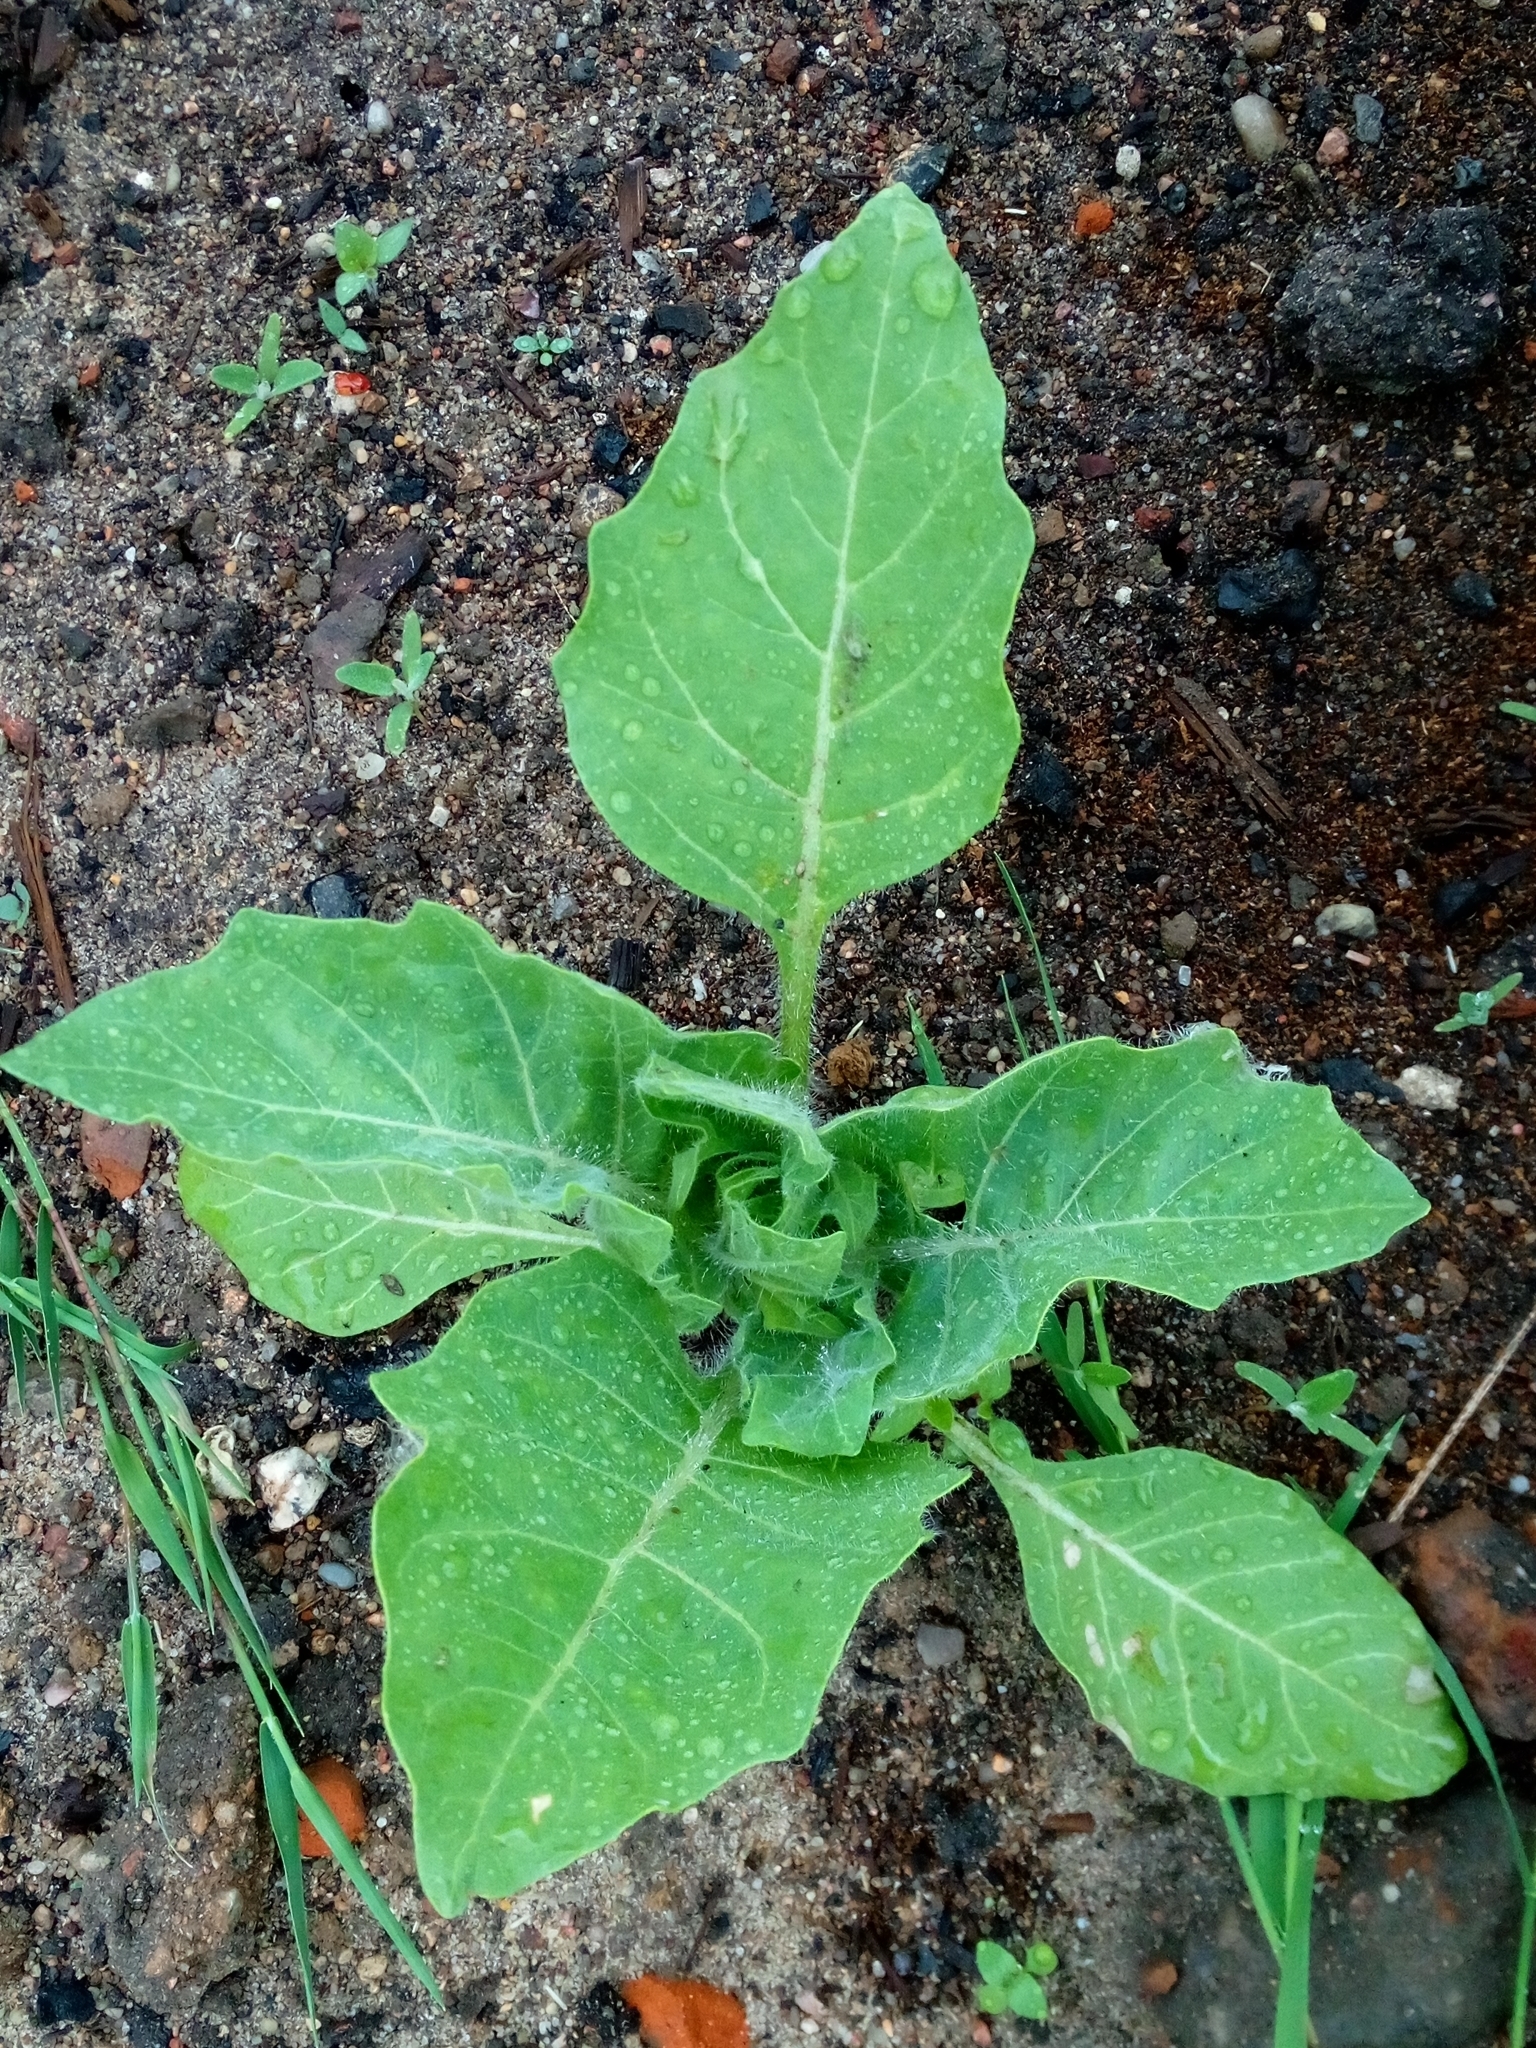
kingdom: Plantae
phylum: Tracheophyta
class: Magnoliopsida
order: Solanales
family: Solanaceae
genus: Hyoscyamus
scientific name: Hyoscyamus niger
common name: Henbane
